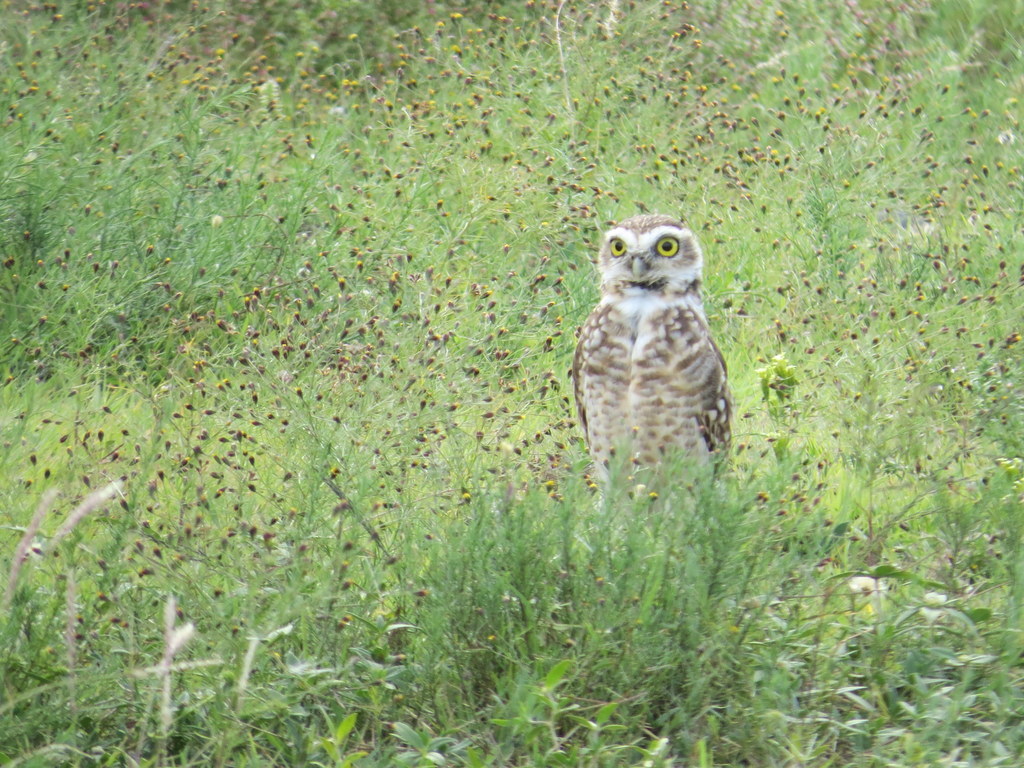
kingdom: Animalia
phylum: Chordata
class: Aves
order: Strigiformes
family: Strigidae
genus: Athene
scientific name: Athene cunicularia
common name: Burrowing owl
